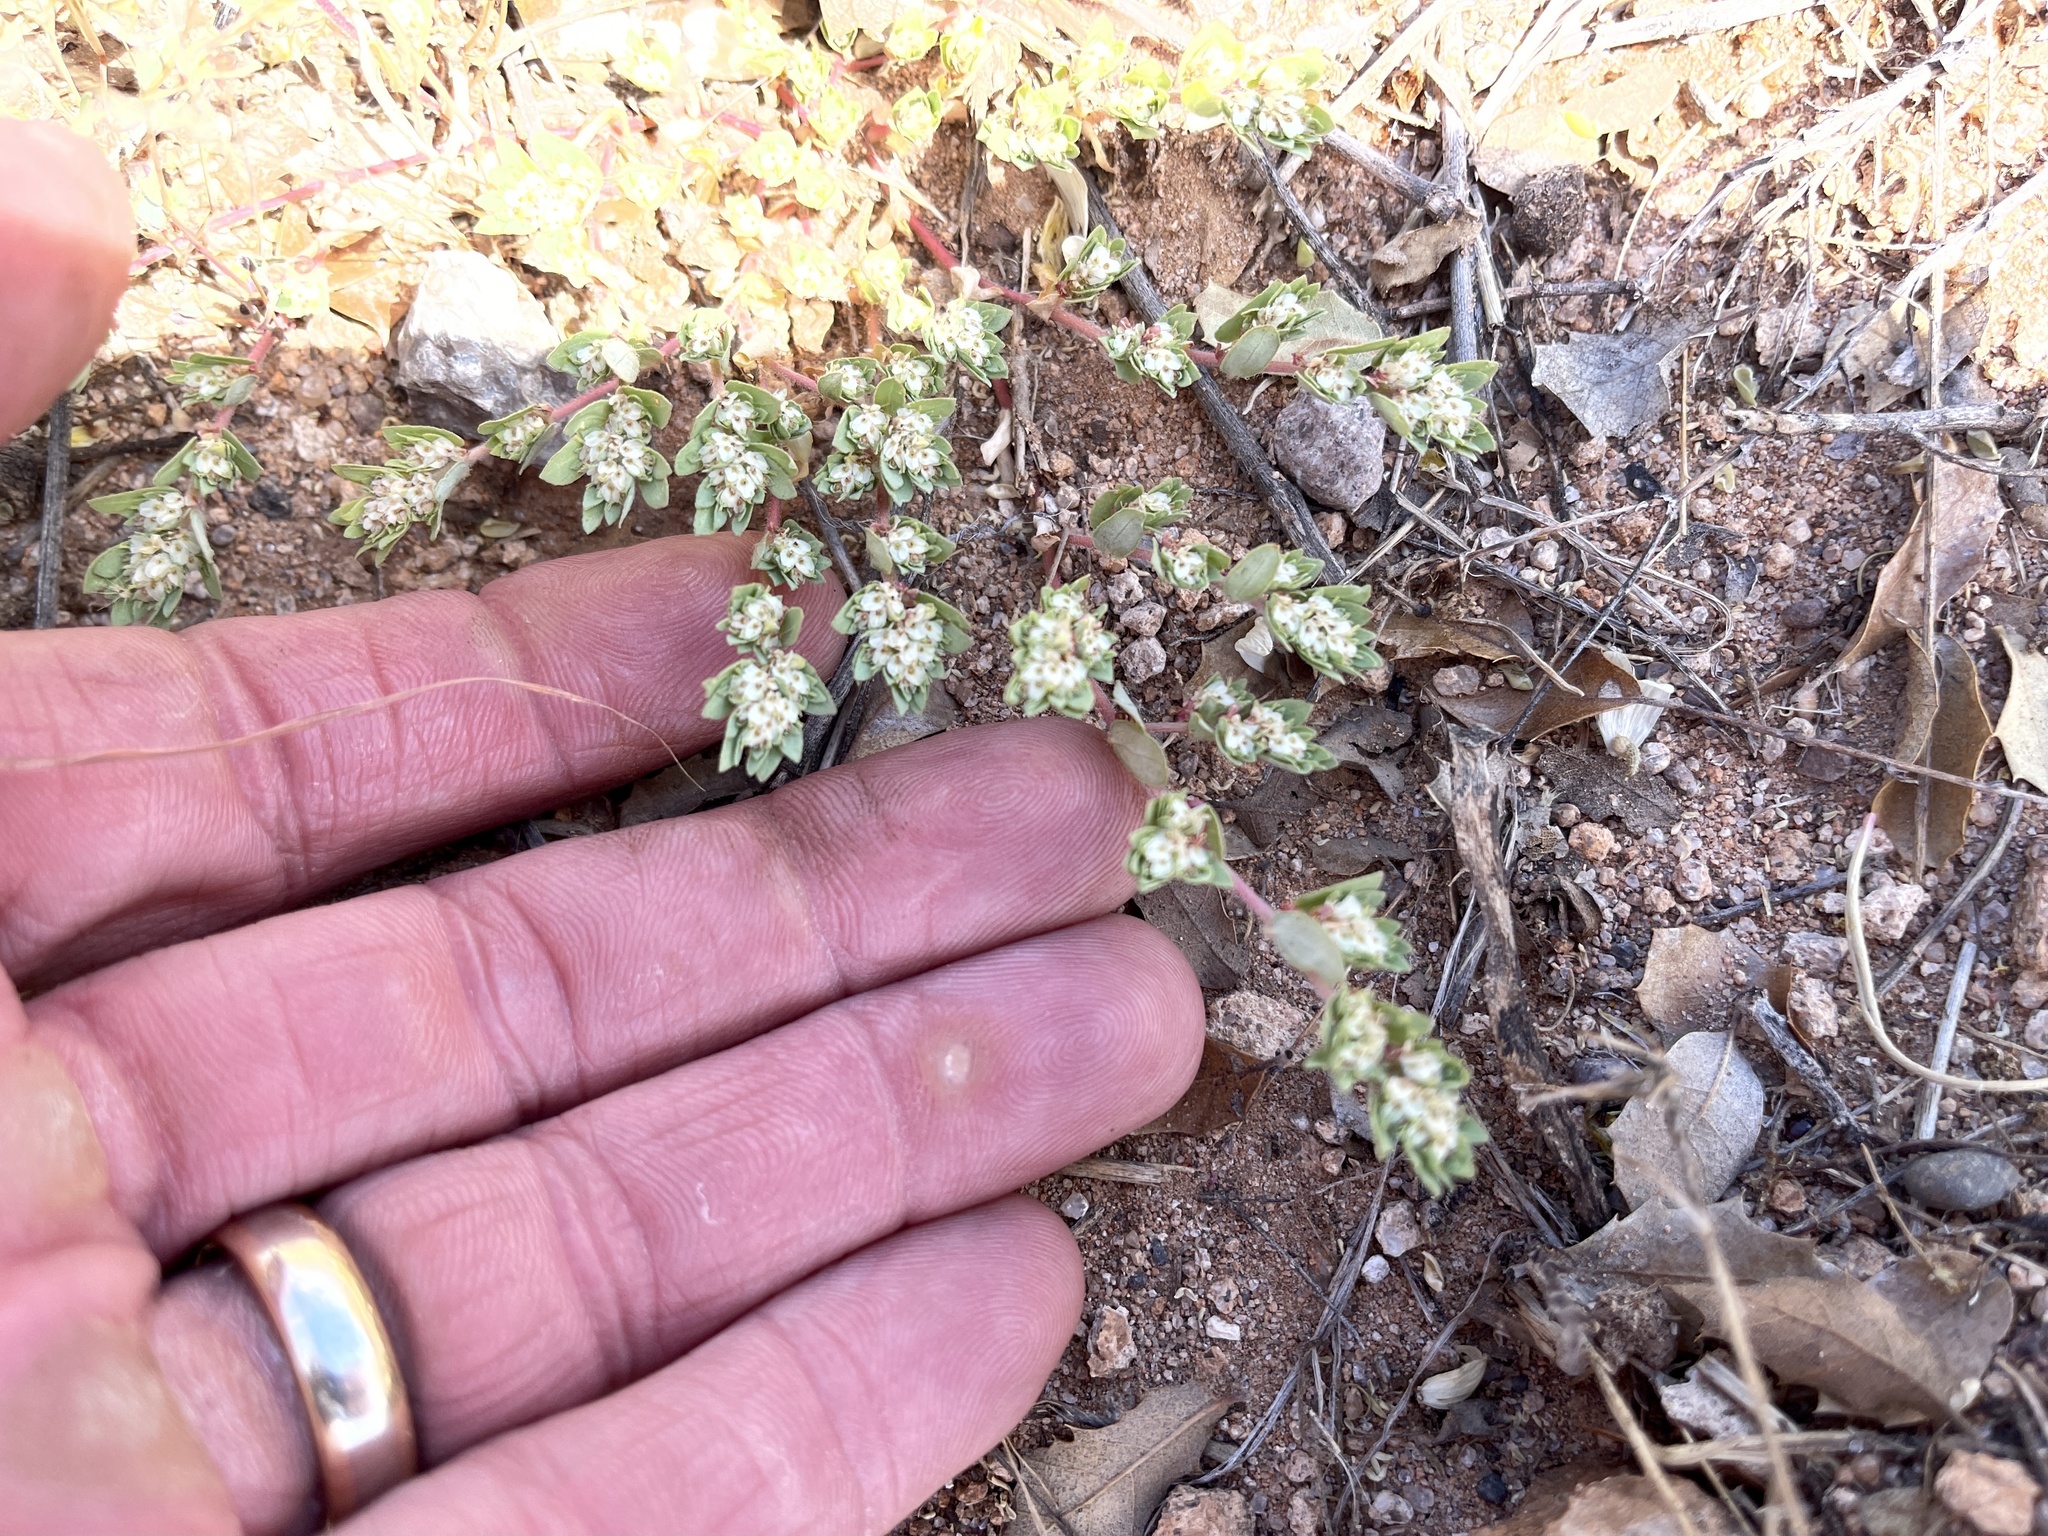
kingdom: Plantae
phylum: Tracheophyta
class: Magnoliopsida
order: Malpighiales
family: Euphorbiaceae
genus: Euphorbia
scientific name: Euphorbia indivisa
